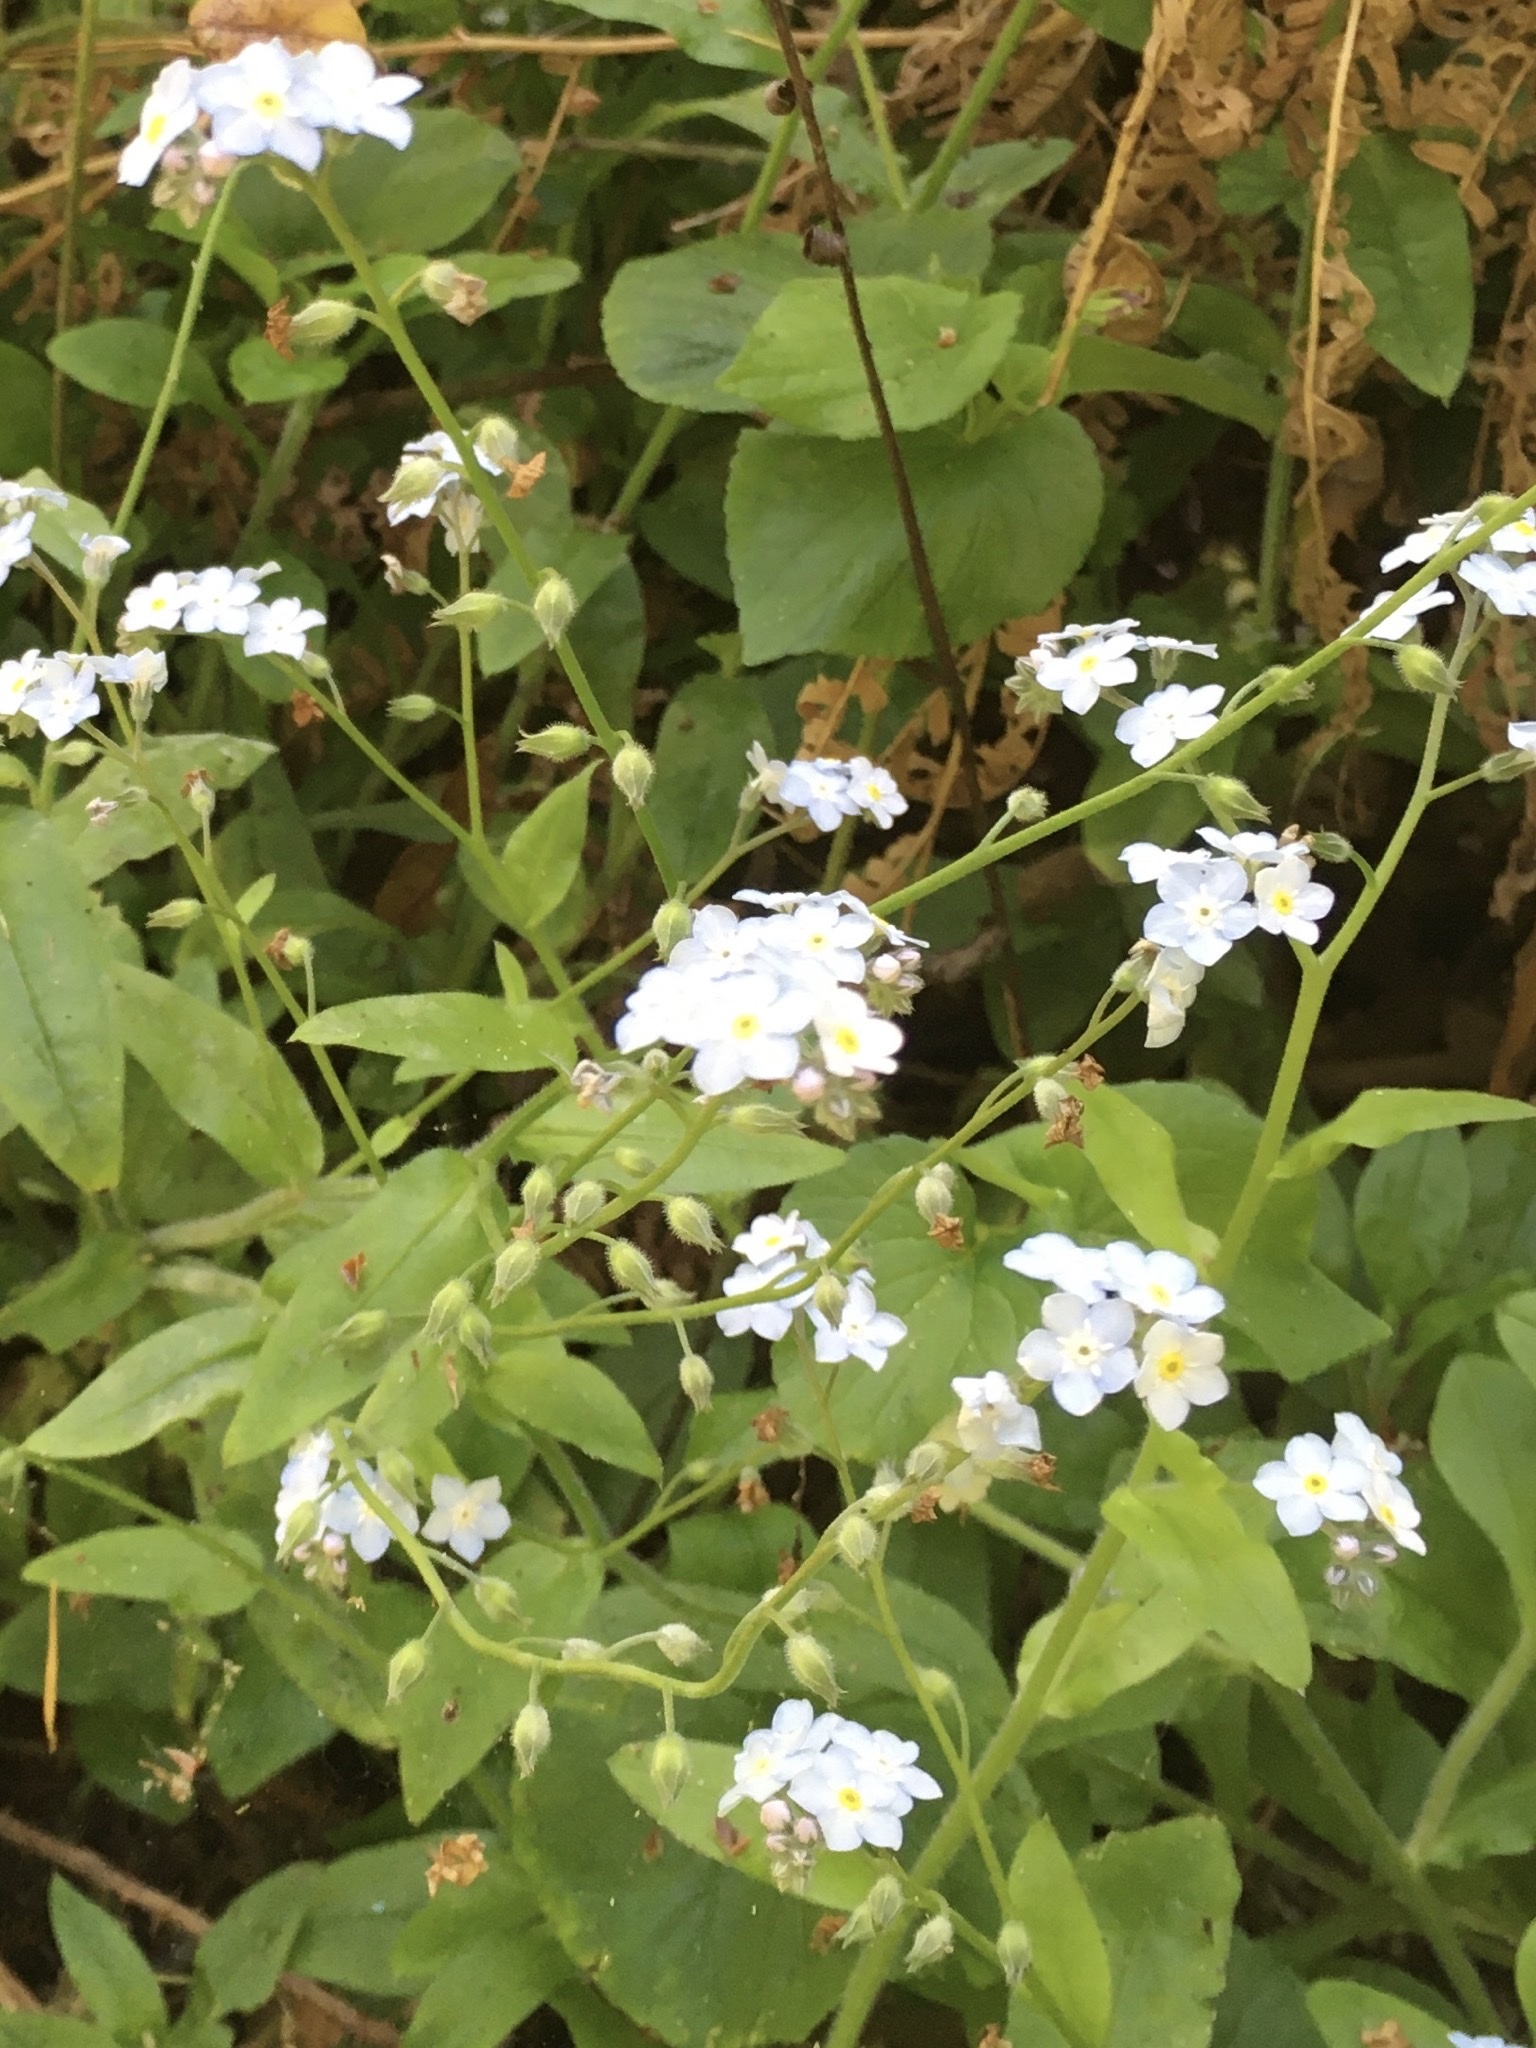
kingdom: Plantae
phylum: Tracheophyta
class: Magnoliopsida
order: Boraginales
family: Boraginaceae
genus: Myosotis
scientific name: Myosotis latifolia
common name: Broadleaf forget-me-not
